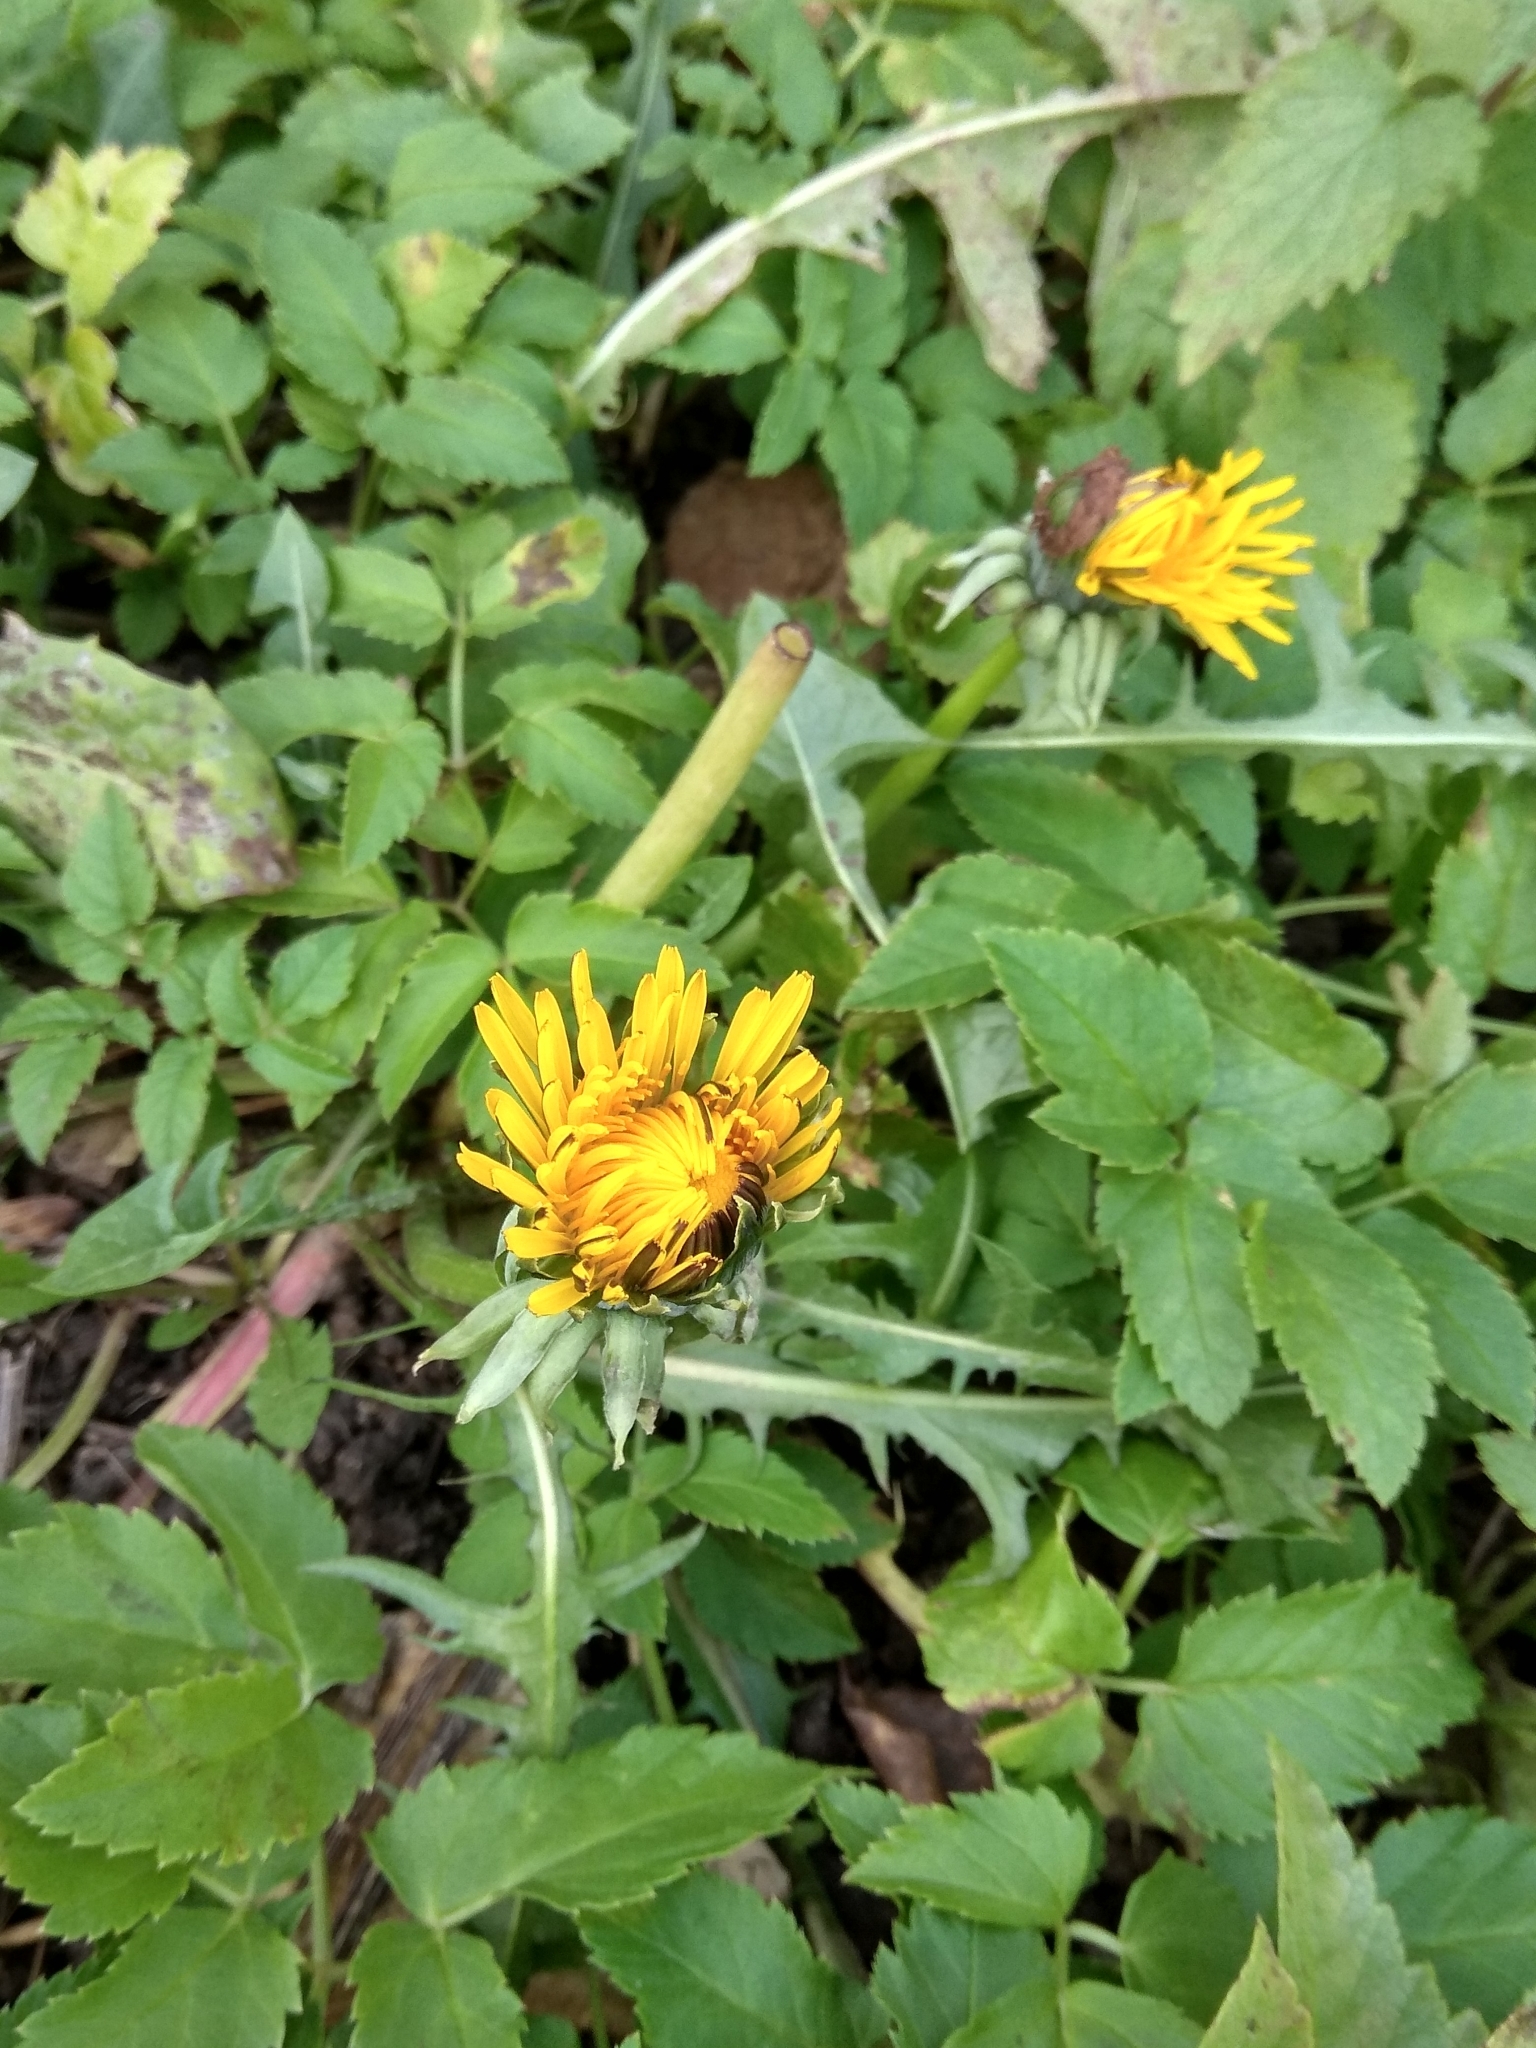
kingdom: Plantae
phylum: Tracheophyta
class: Magnoliopsida
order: Asterales
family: Asteraceae
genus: Taraxacum
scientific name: Taraxacum officinale
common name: Common dandelion
